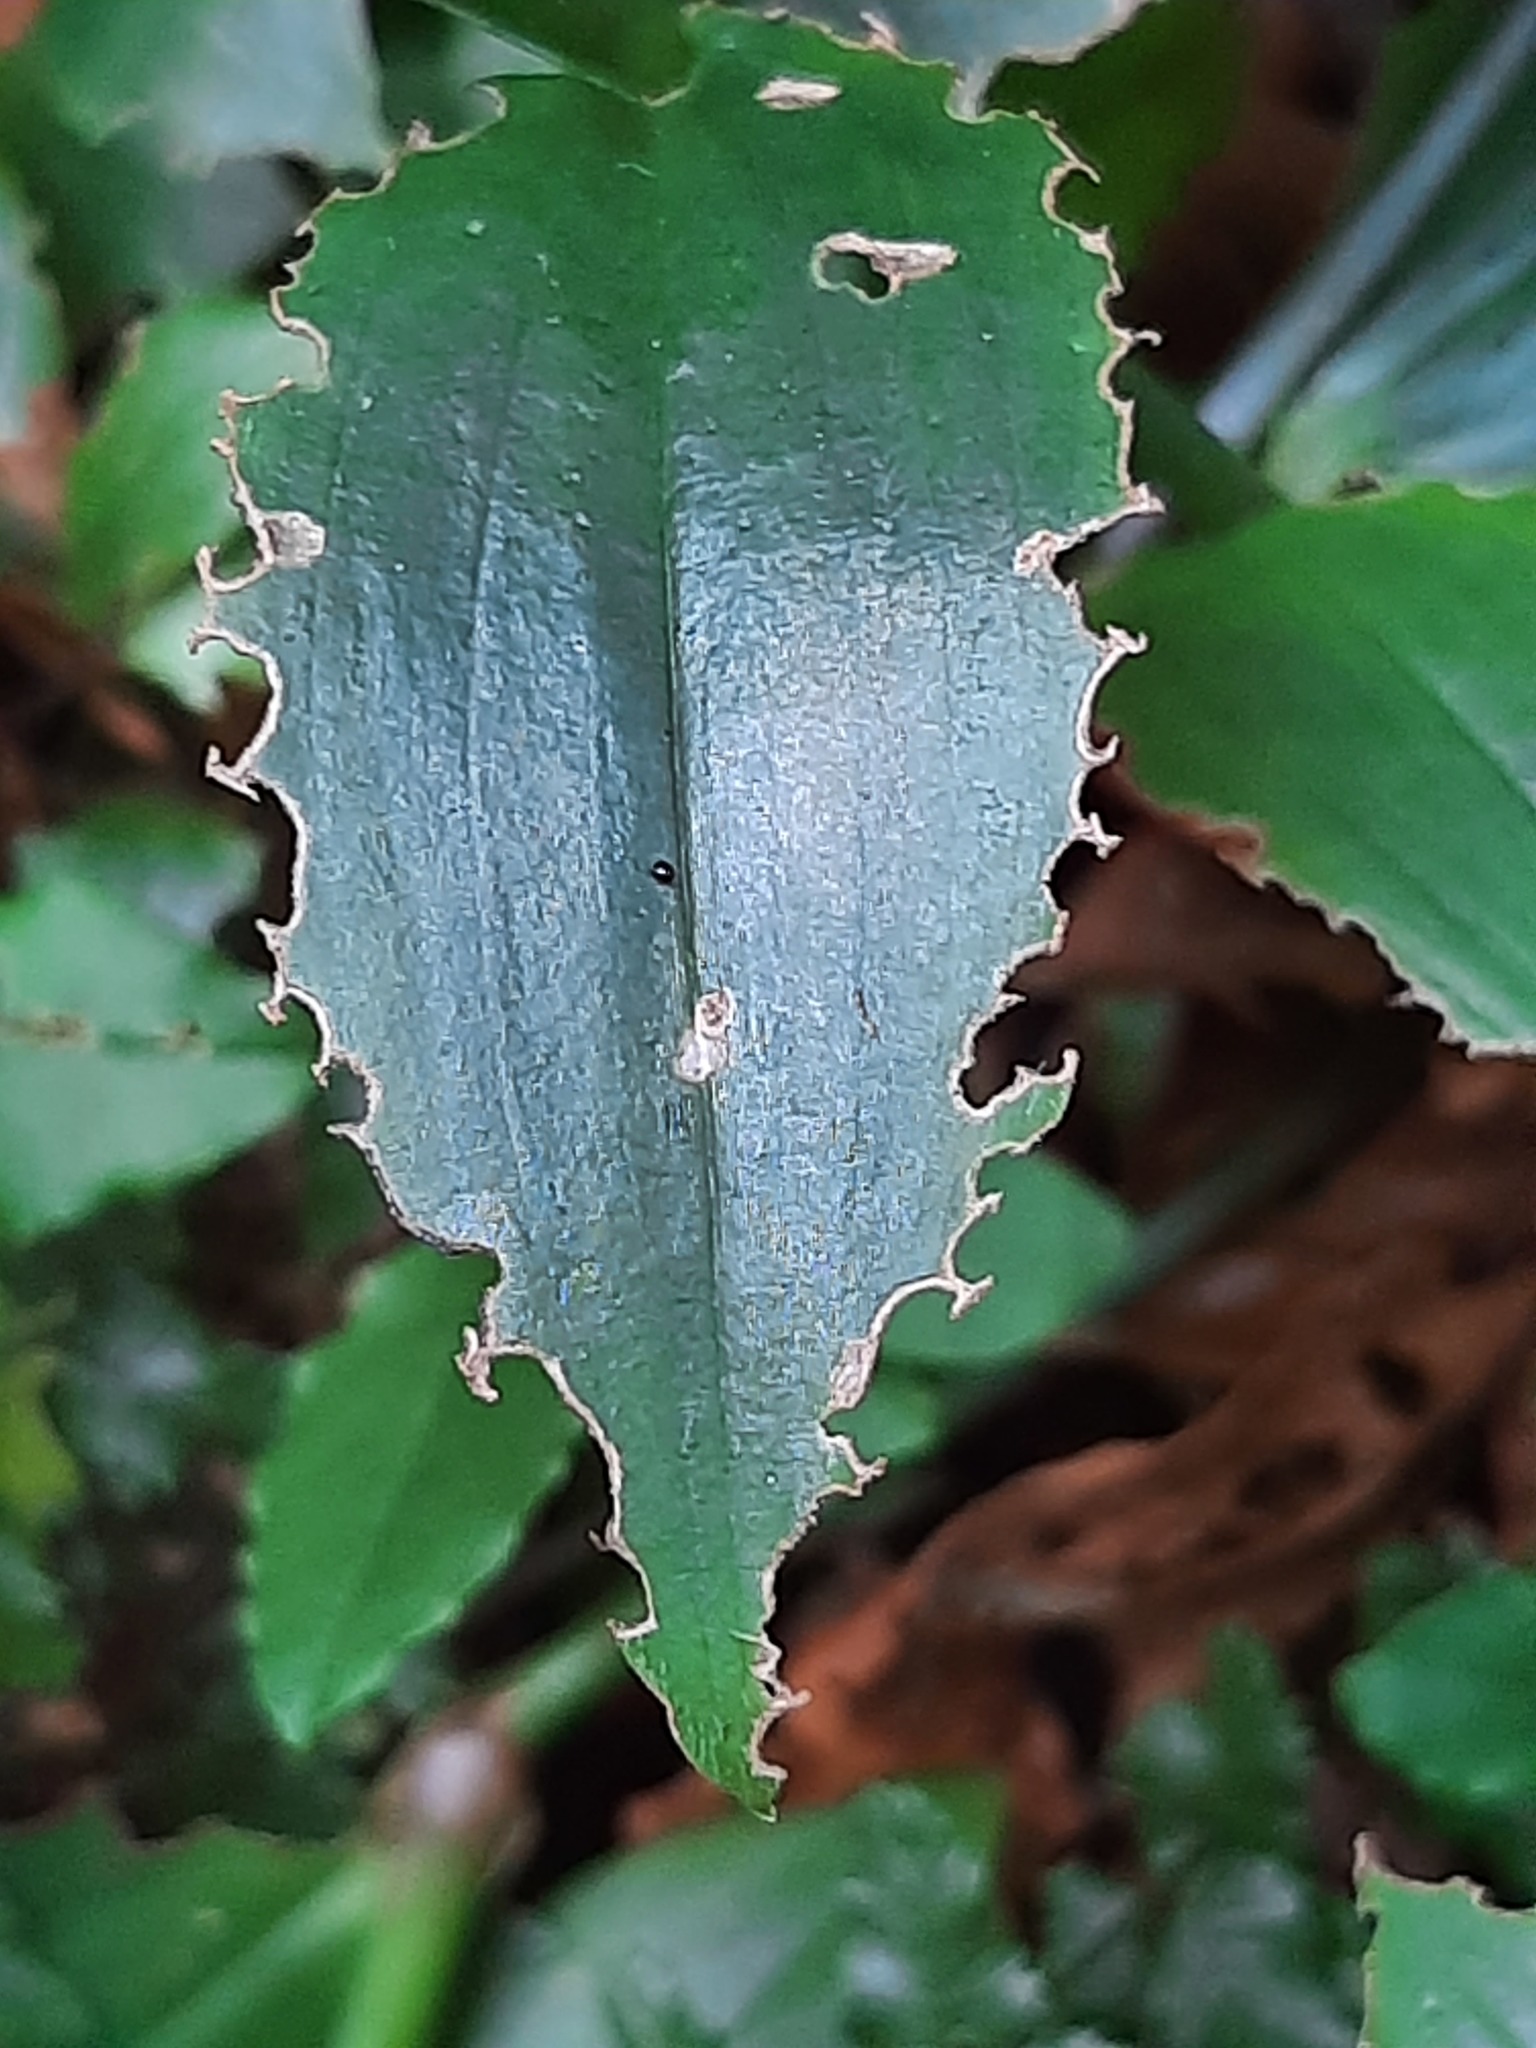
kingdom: Plantae
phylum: Tracheophyta
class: Liliopsida
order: Commelinales
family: Commelinaceae
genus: Tradescantia
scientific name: Tradescantia fluminensis
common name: Wandering-jew
